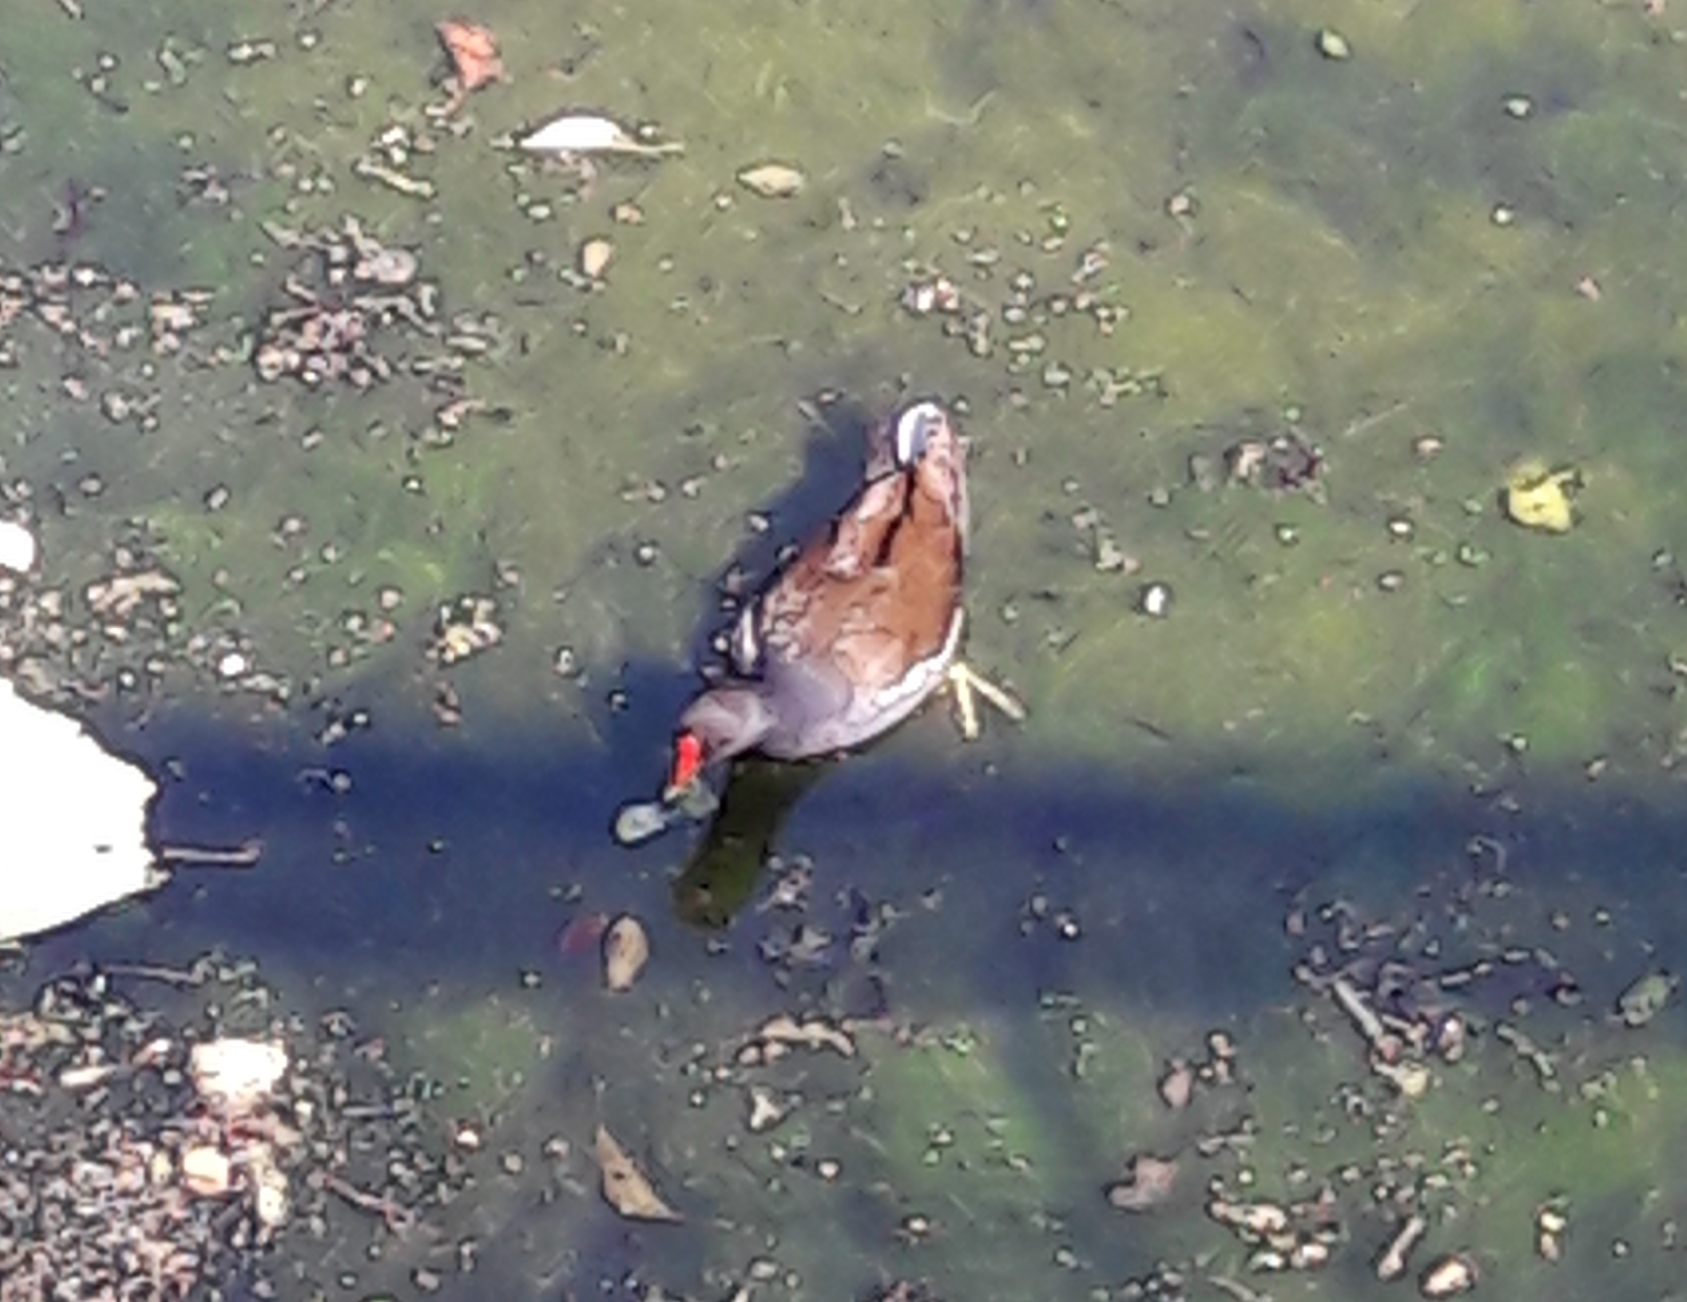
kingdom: Animalia
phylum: Chordata
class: Aves
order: Gruiformes
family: Rallidae
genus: Gallinula
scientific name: Gallinula chloropus
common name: Common moorhen
